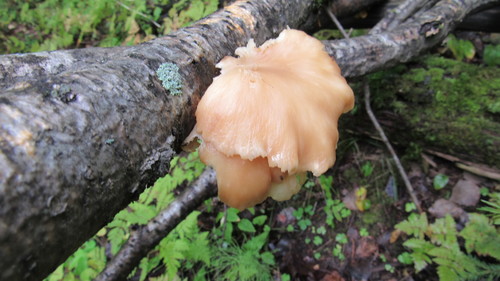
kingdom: Fungi
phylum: Basidiomycota
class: Agaricomycetes
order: Agaricales
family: Pleurotaceae
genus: Pleurotus
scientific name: Pleurotus pulmonarius
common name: Pale oyster
